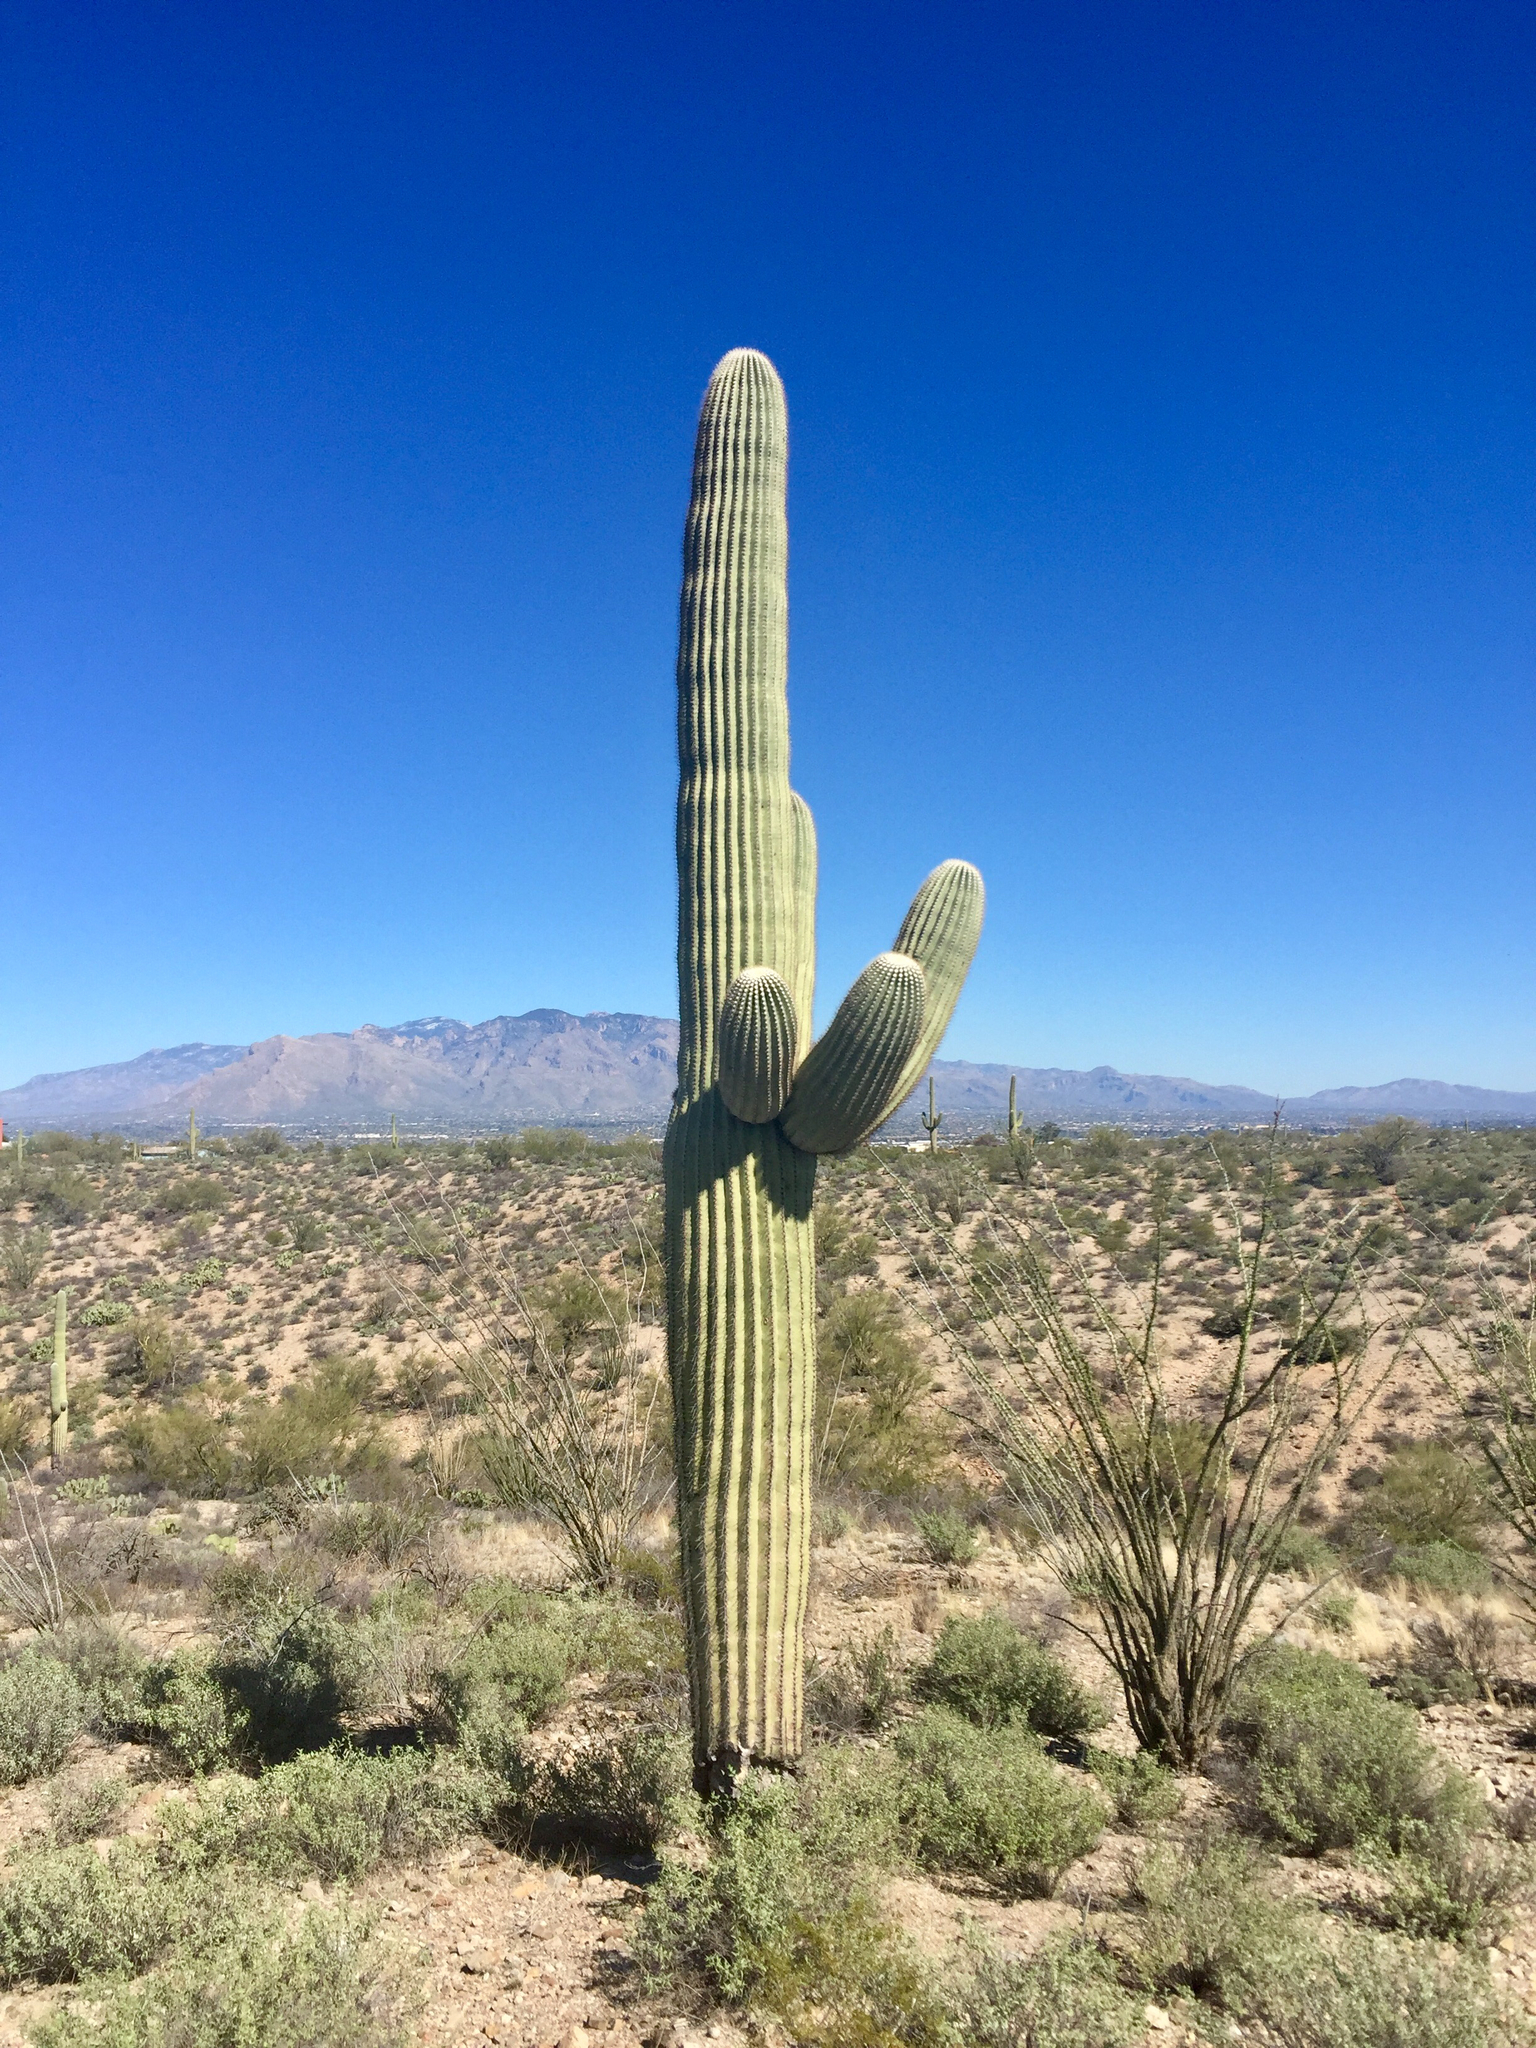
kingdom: Plantae
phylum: Tracheophyta
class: Magnoliopsida
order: Caryophyllales
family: Cactaceae
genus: Carnegiea
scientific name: Carnegiea gigantea
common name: Saguaro
